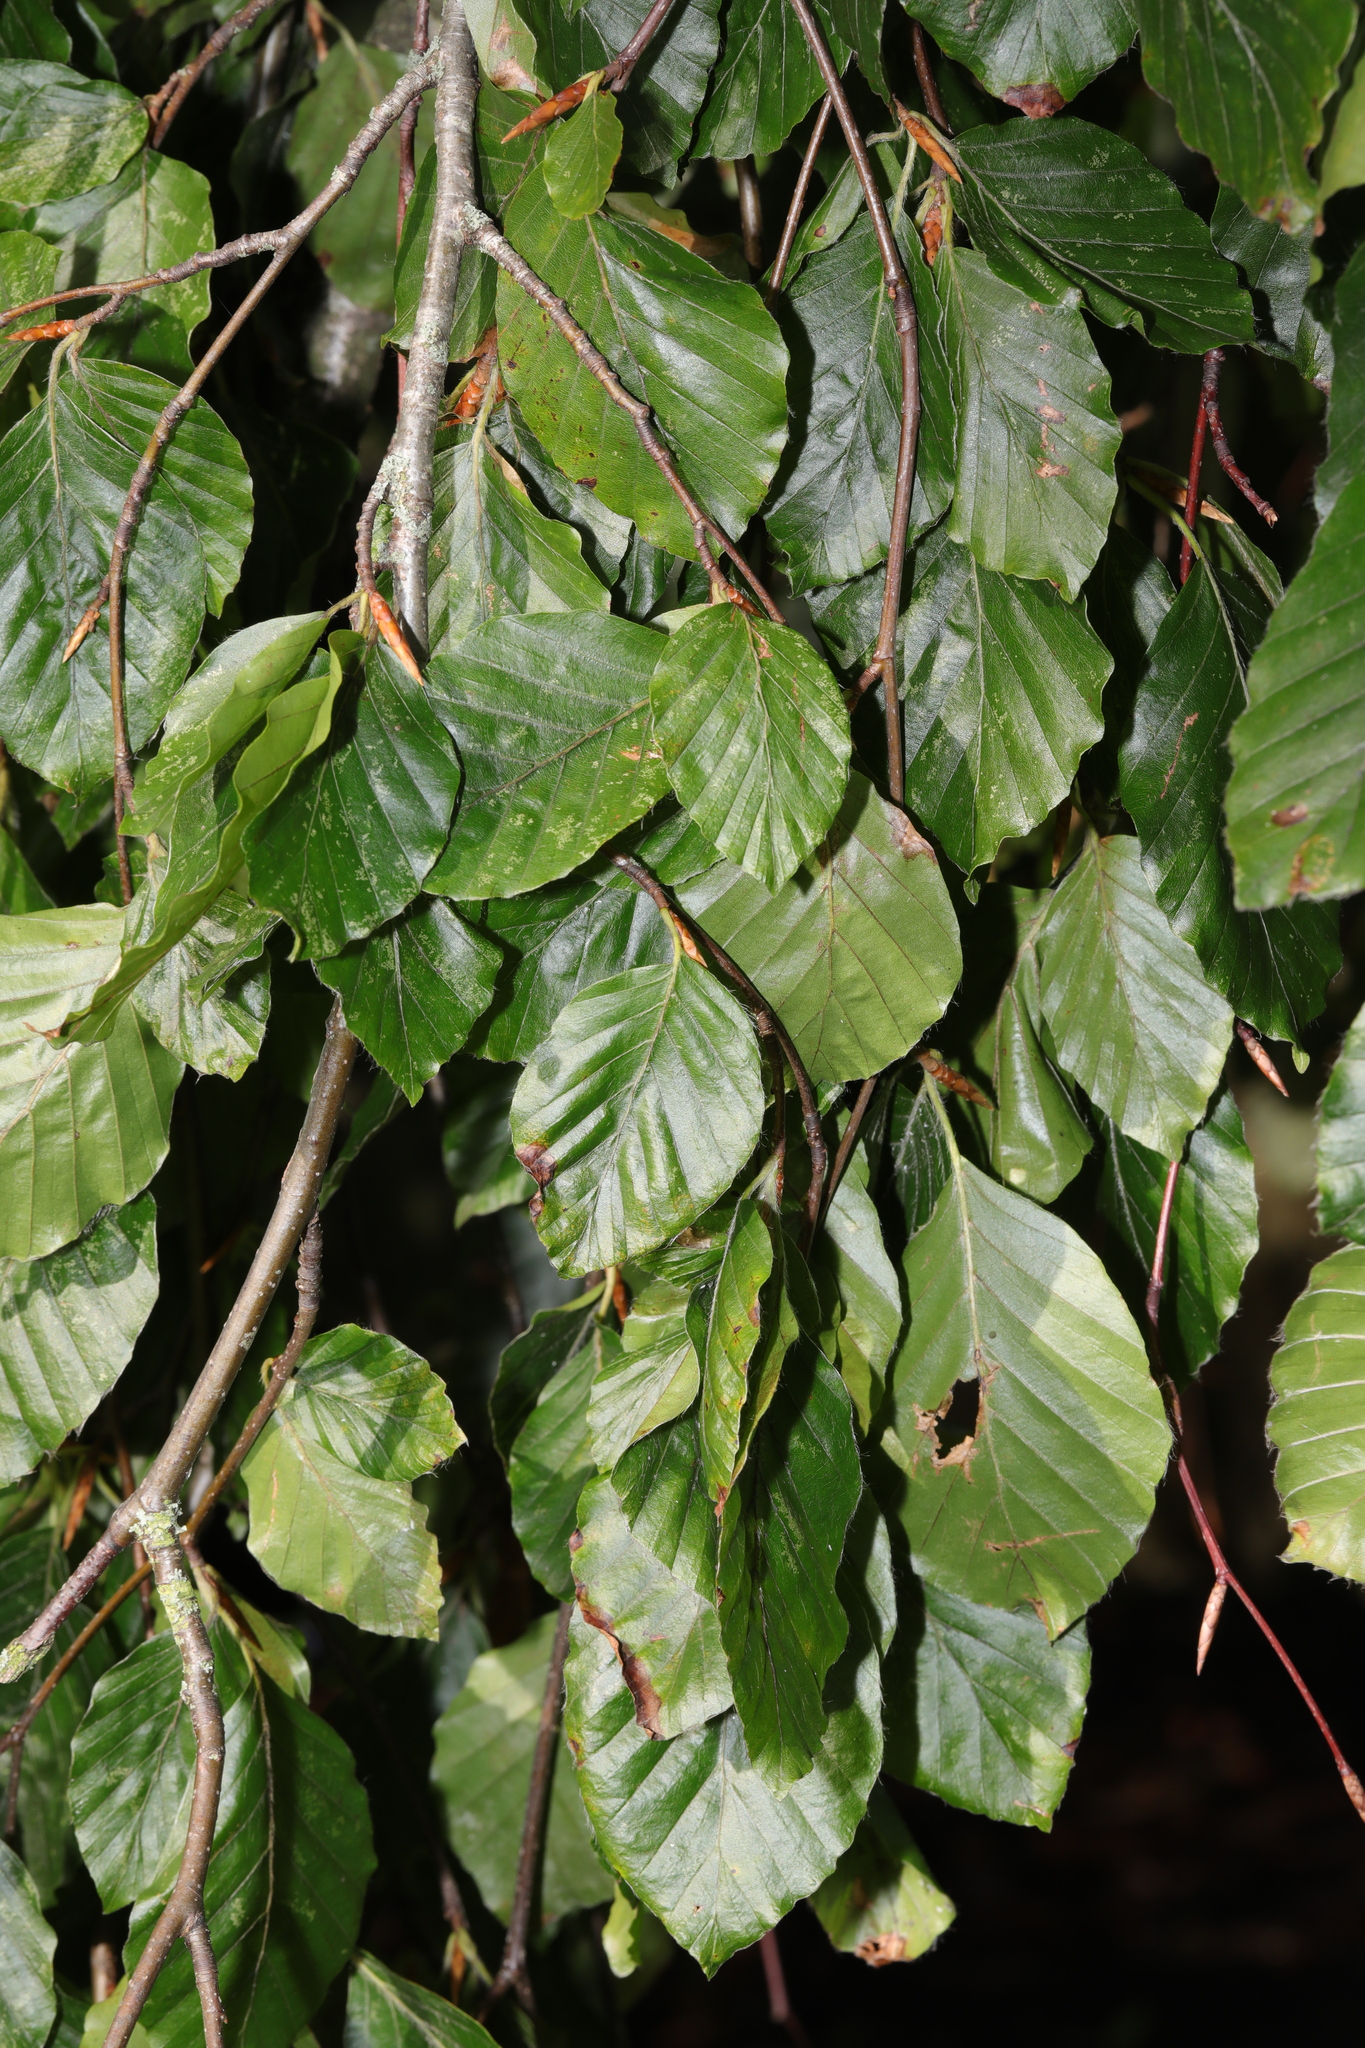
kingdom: Plantae
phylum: Tracheophyta
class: Magnoliopsida
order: Fagales
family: Fagaceae
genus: Fagus
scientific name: Fagus sylvatica
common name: Beech
